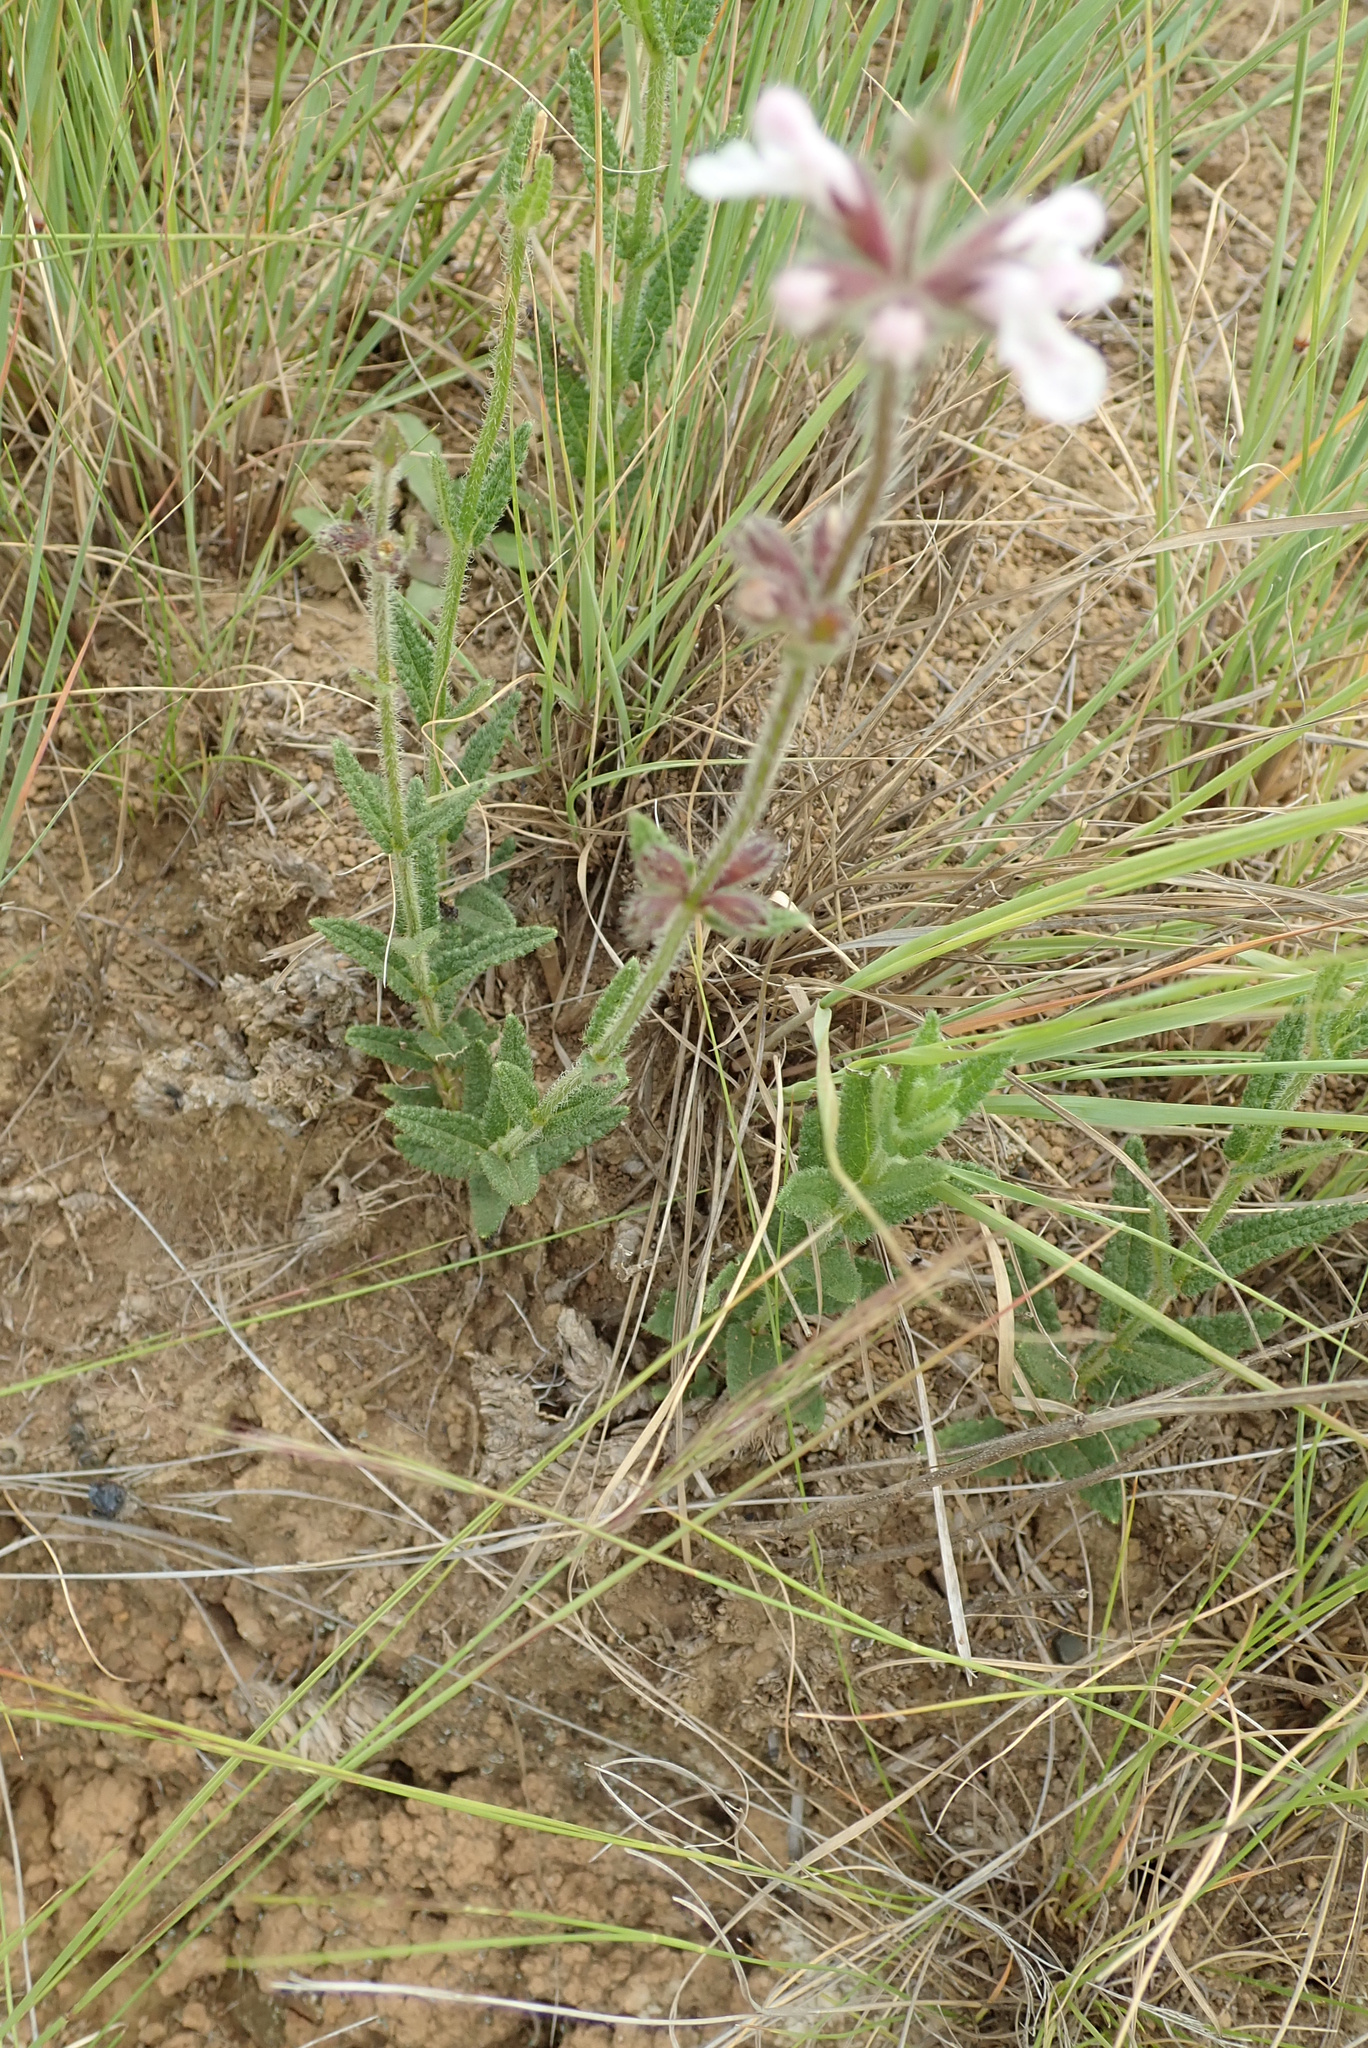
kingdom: Plantae
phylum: Tracheophyta
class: Magnoliopsida
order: Lamiales
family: Lamiaceae
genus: Stachys
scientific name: Stachys nigricans
